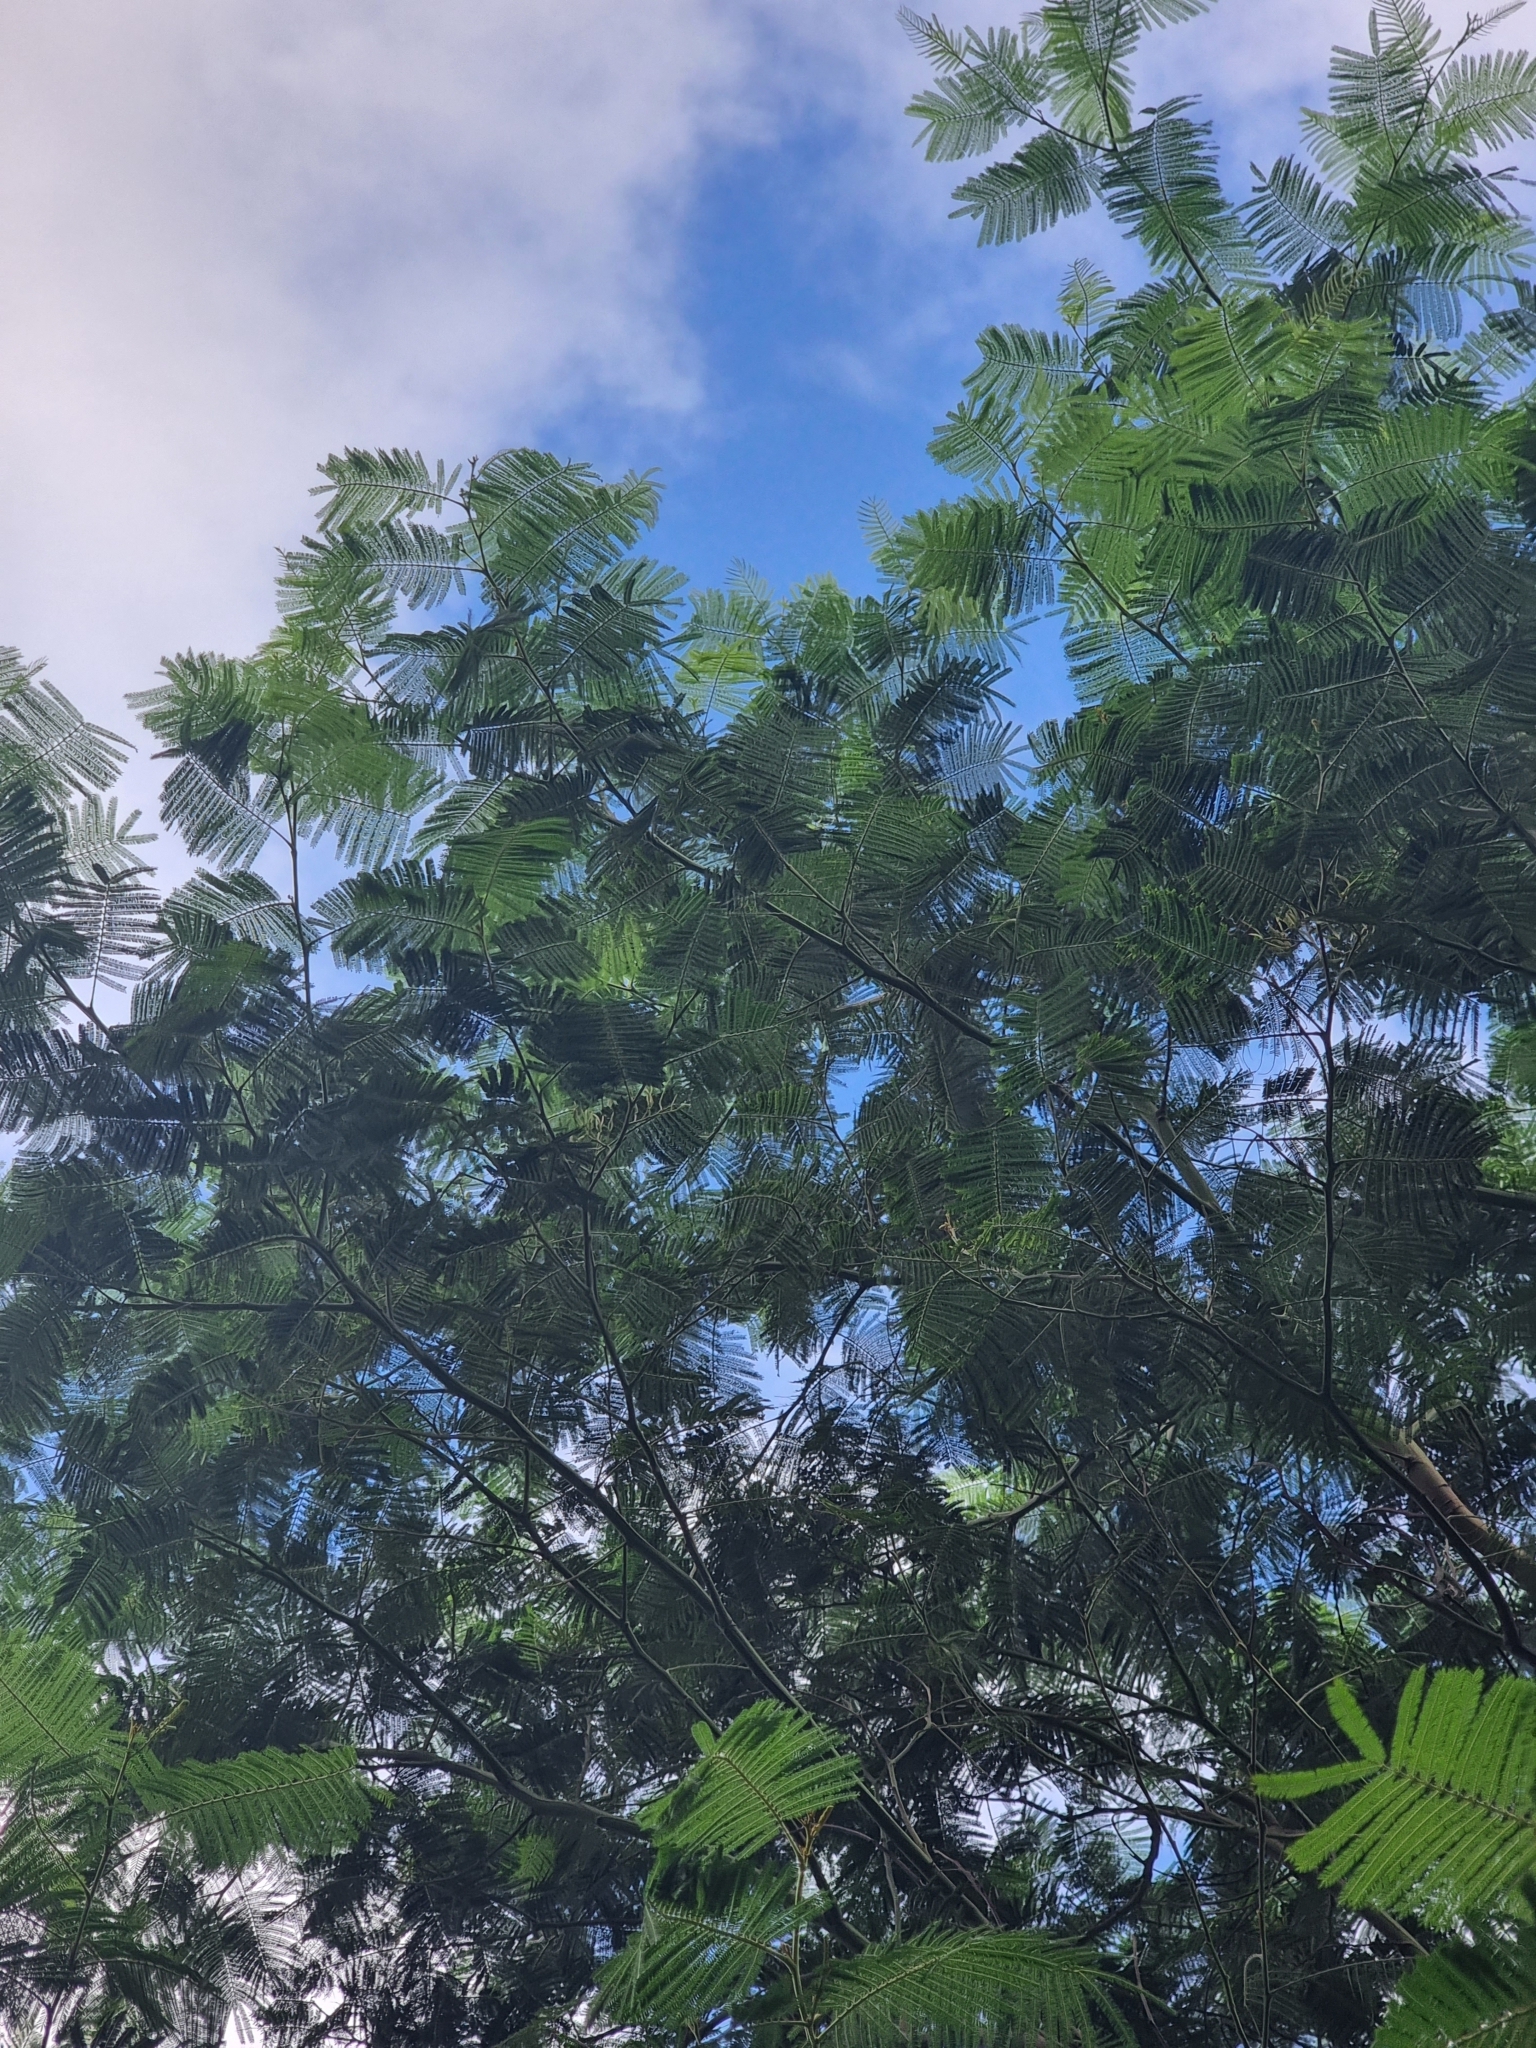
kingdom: Plantae
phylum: Tracheophyta
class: Magnoliopsida
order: Fabales
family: Fabaceae
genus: Acacia
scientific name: Acacia mearnsii
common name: Black wattle
